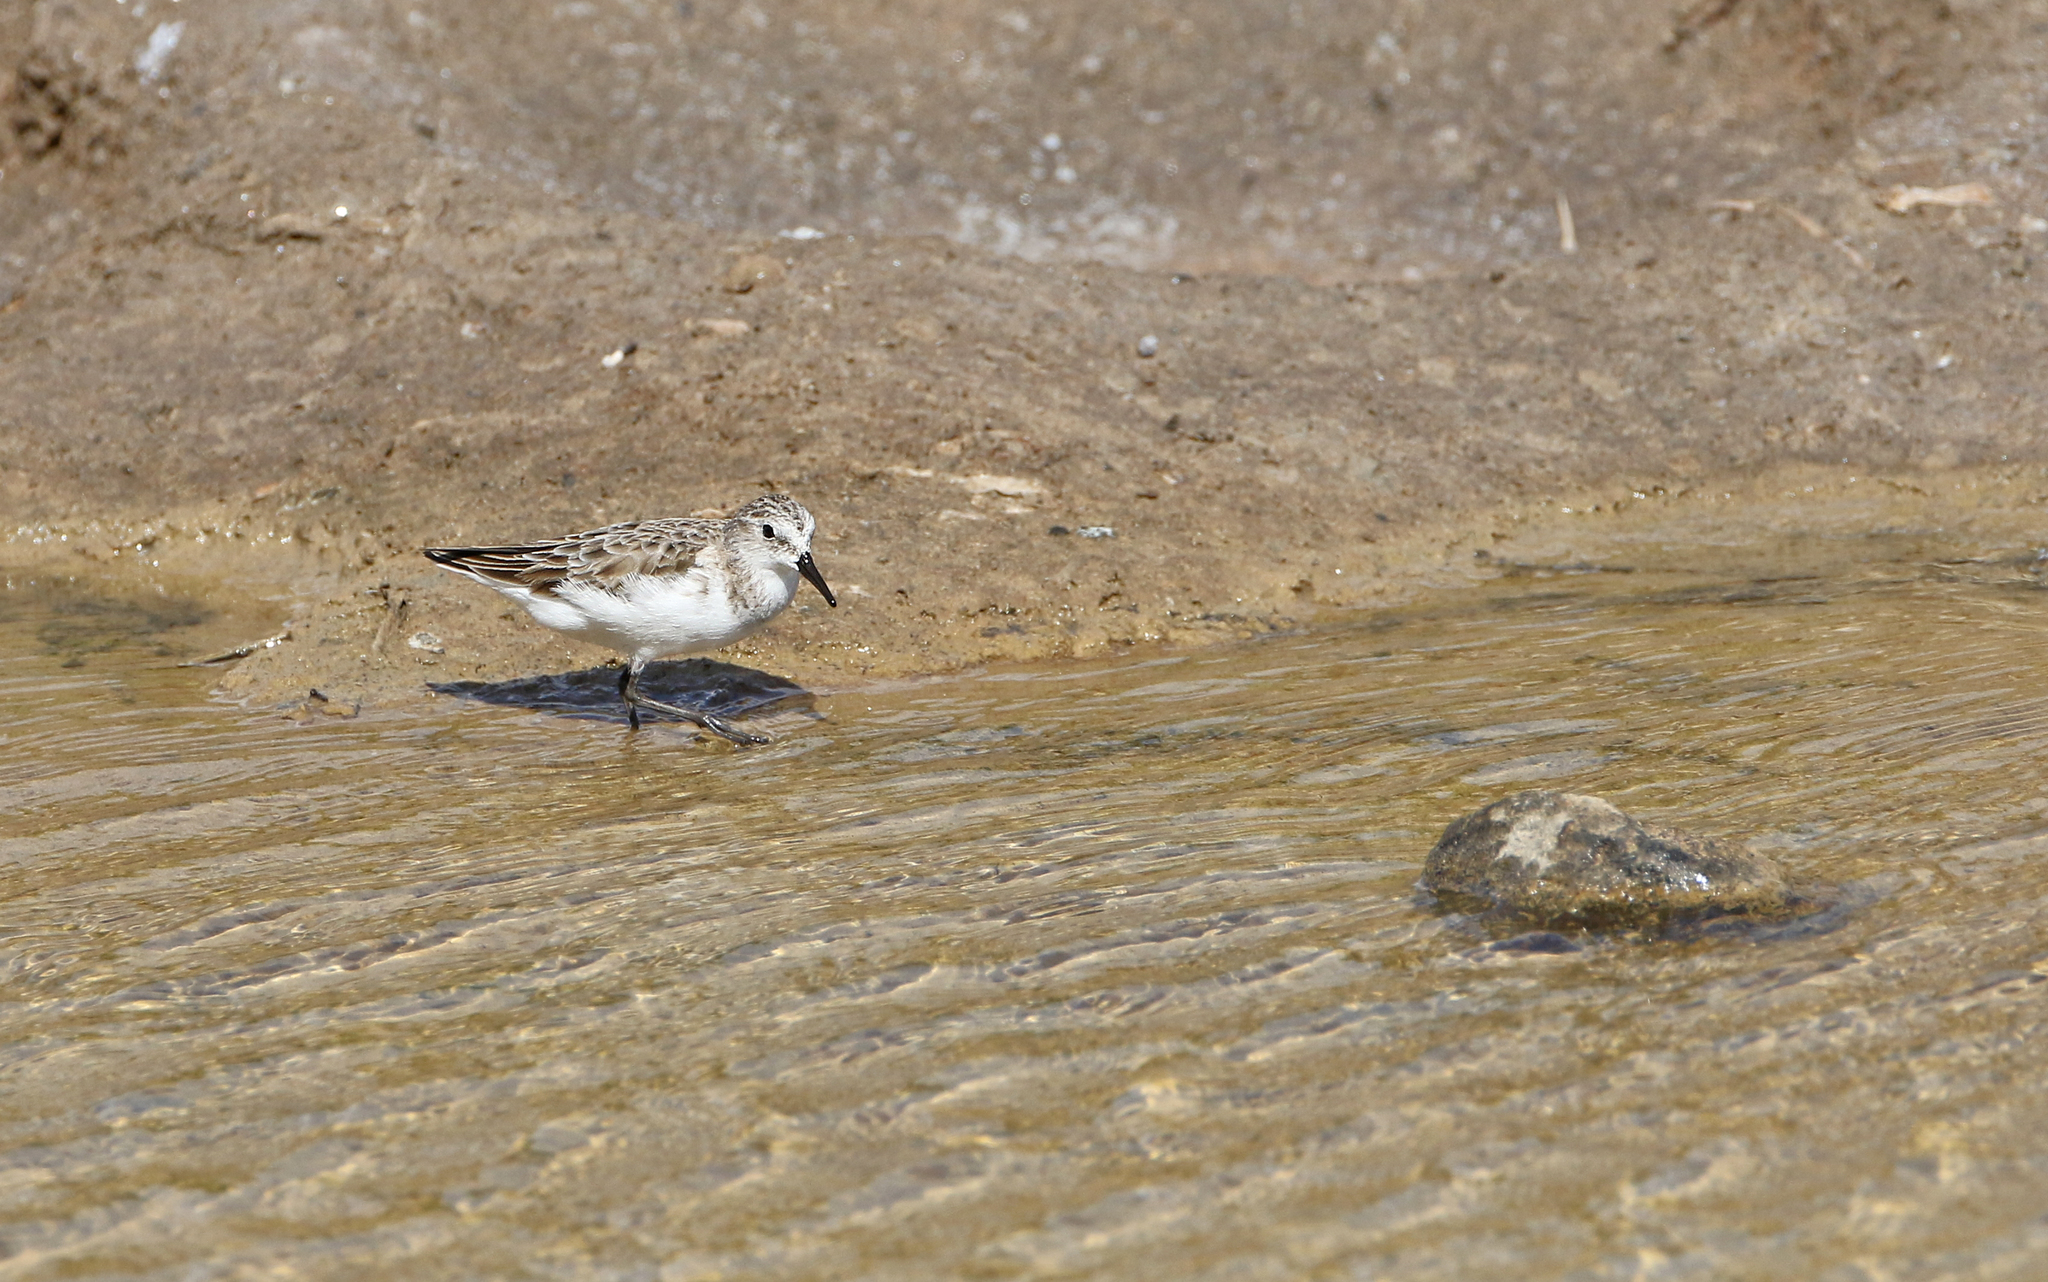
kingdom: Animalia
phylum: Chordata
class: Aves
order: Charadriiformes
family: Scolopacidae
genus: Calidris
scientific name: Calidris minuta
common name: Little stint
